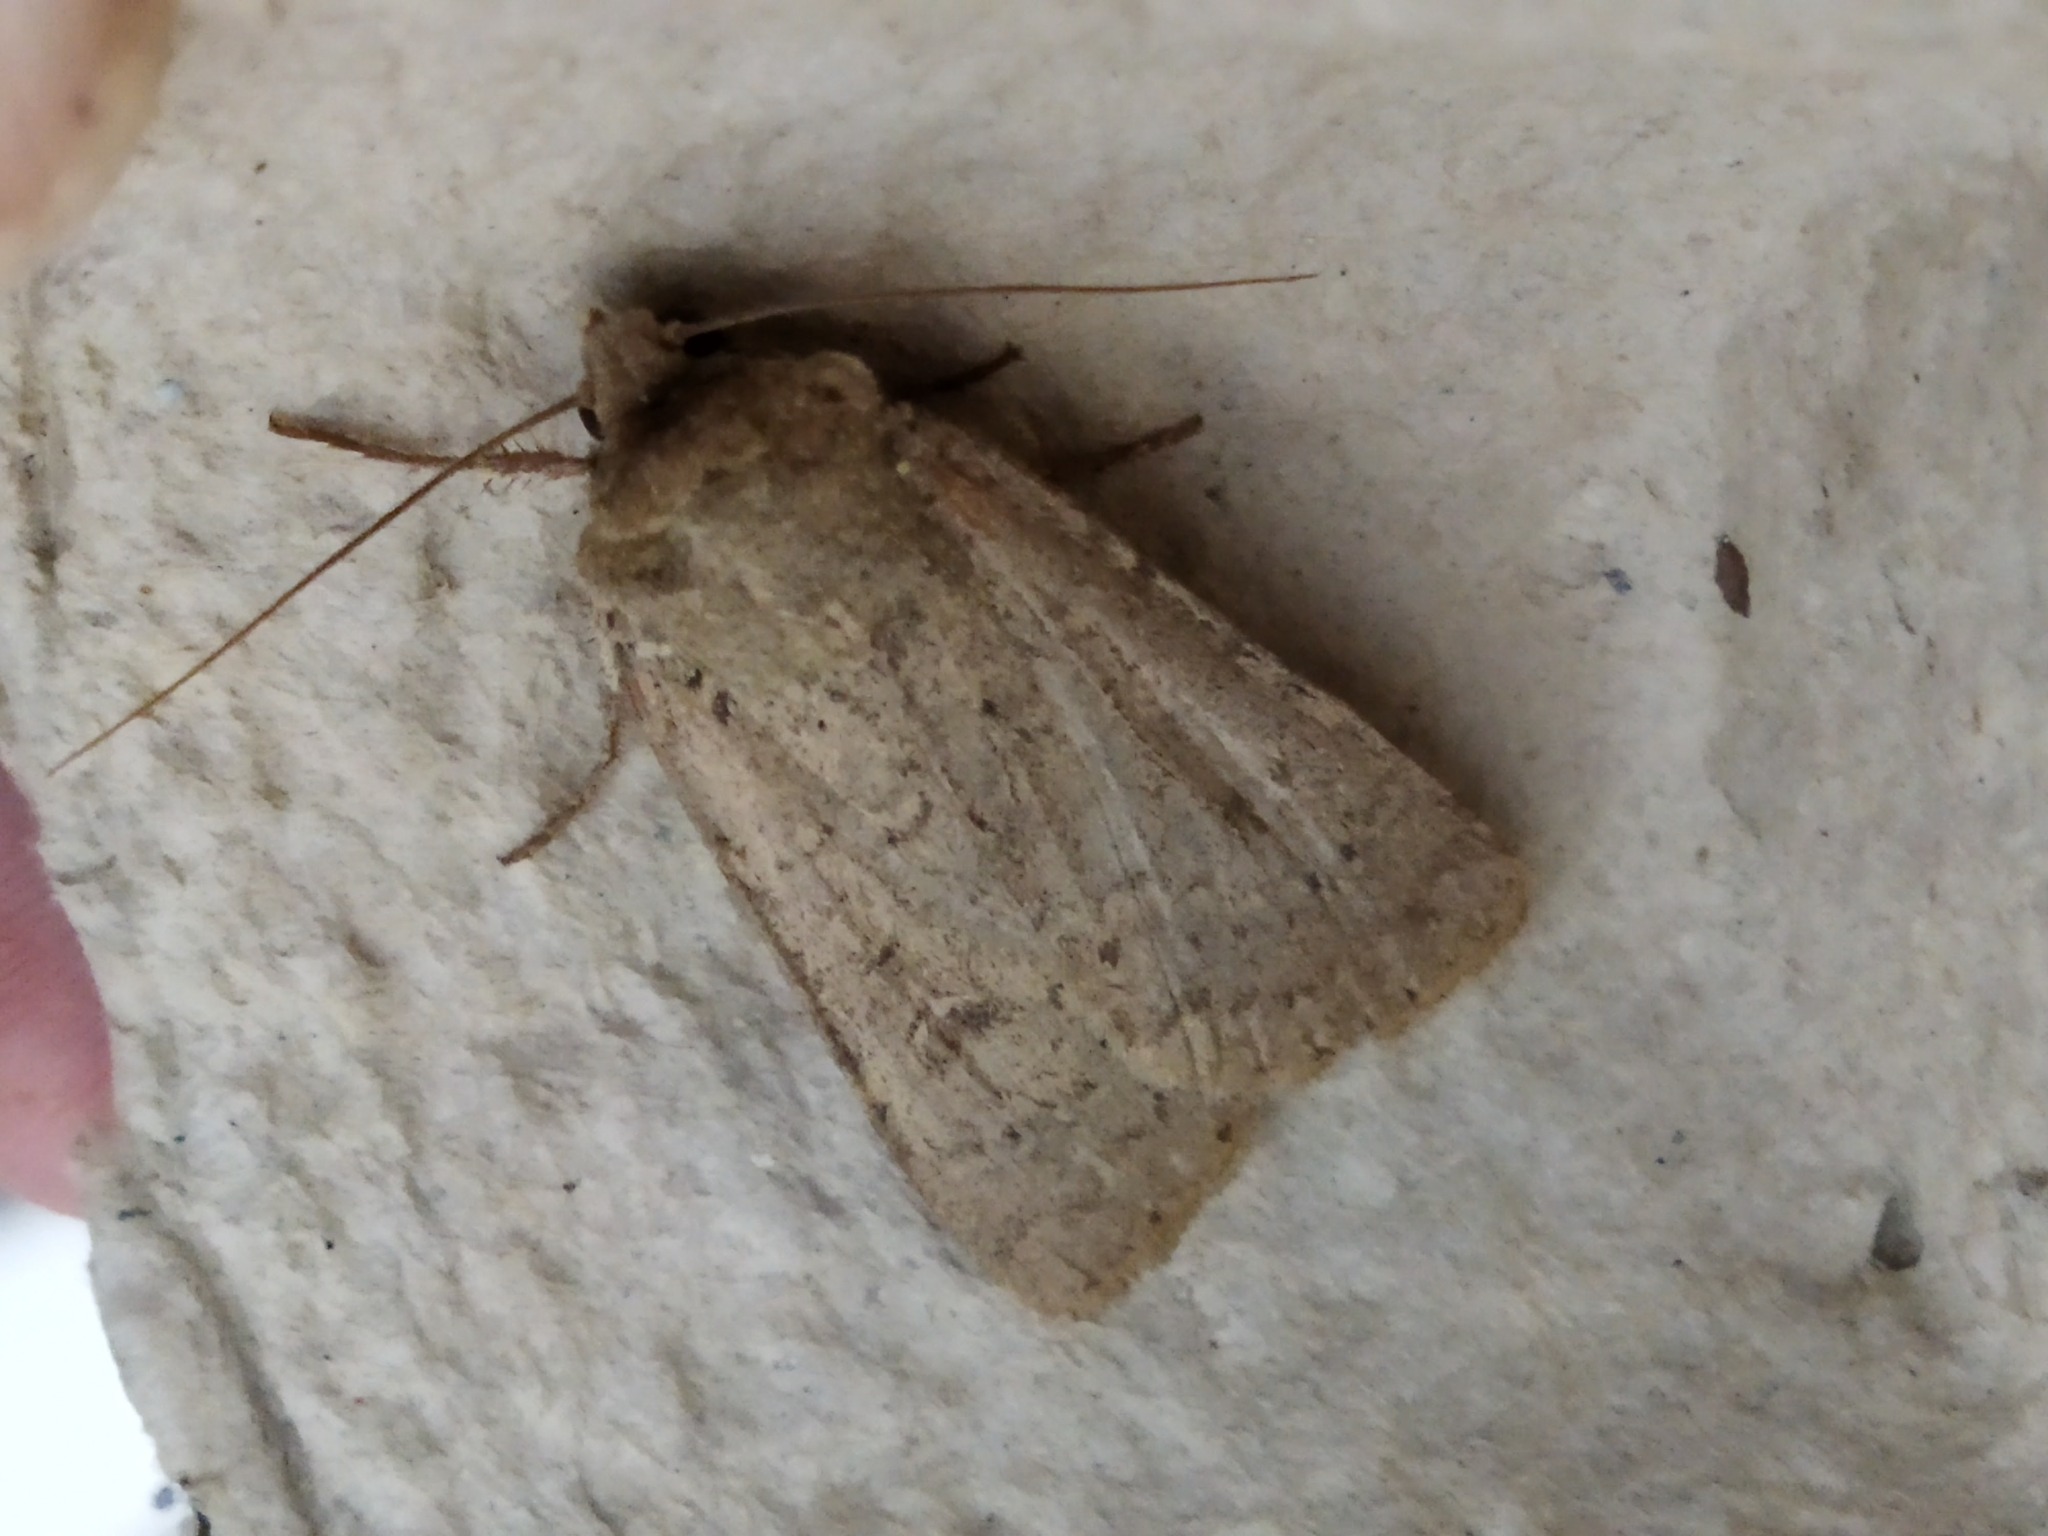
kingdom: Animalia
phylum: Arthropoda
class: Insecta
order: Lepidoptera
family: Noctuidae
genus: Xestia
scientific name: Xestia cohaesa
